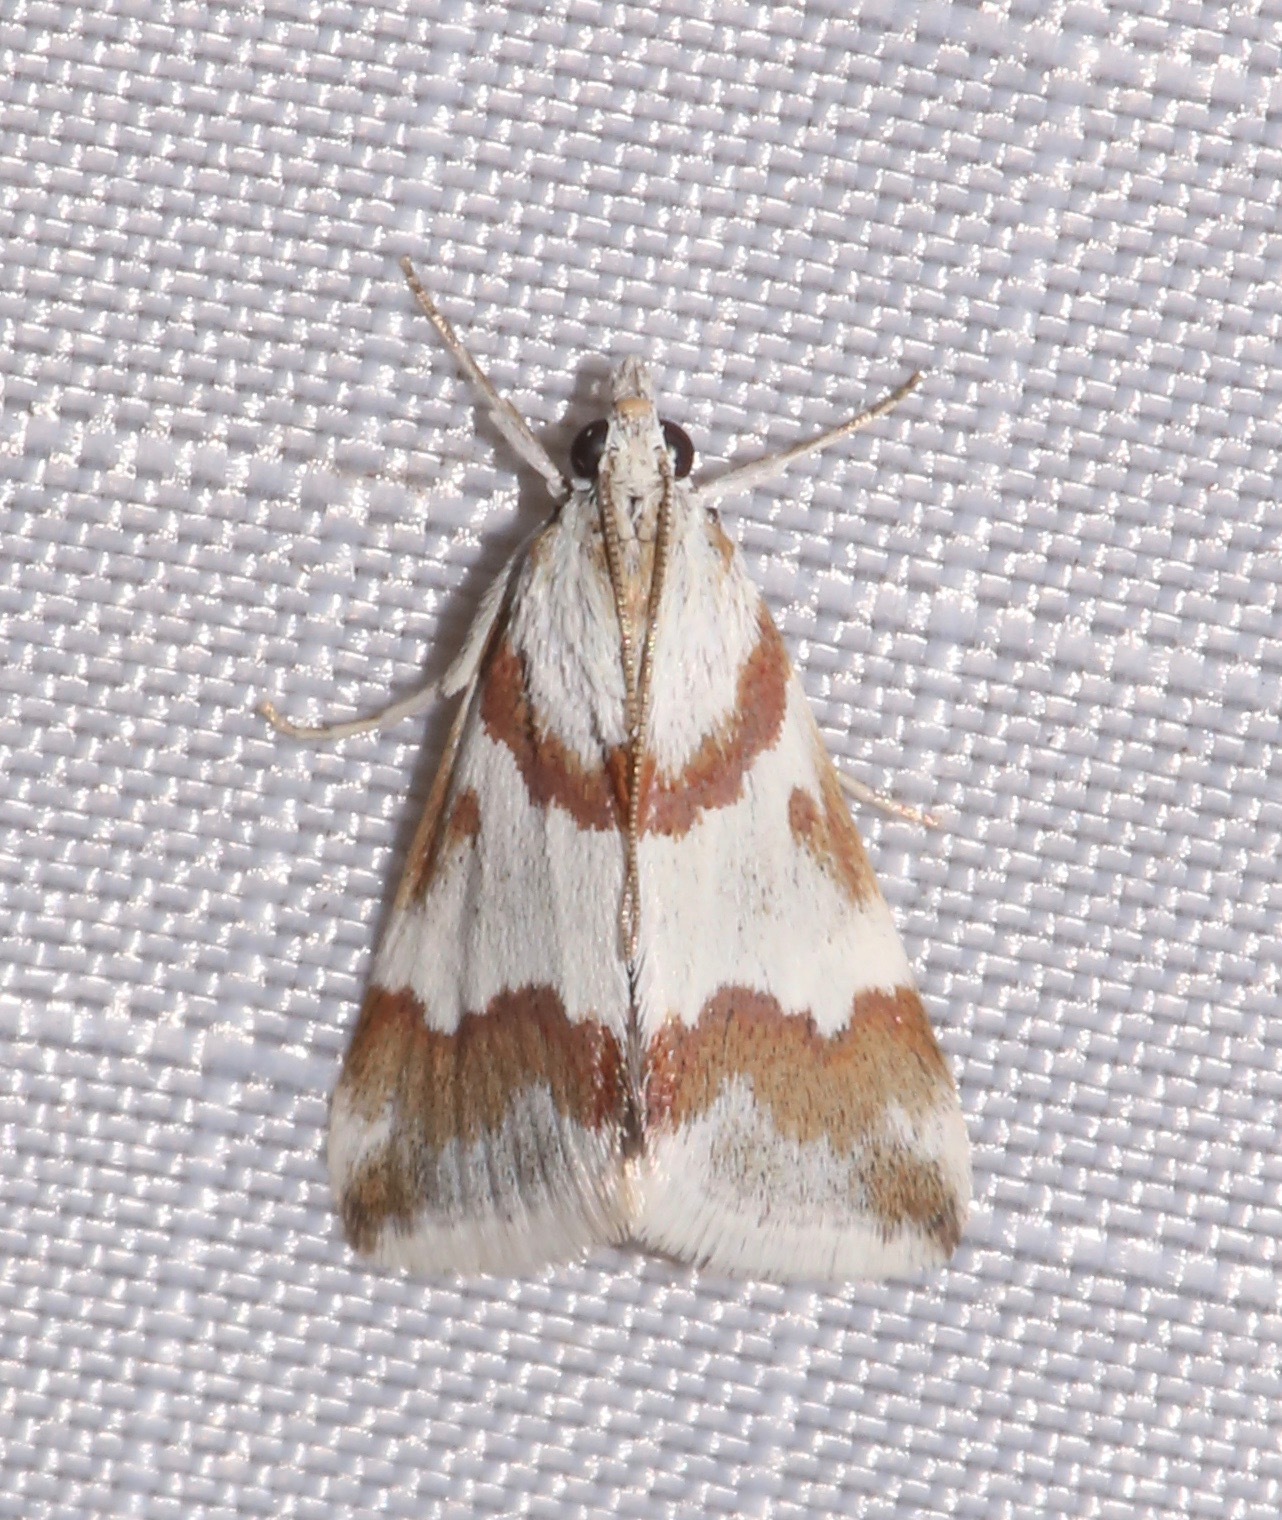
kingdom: Animalia
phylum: Arthropoda
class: Insecta
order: Lepidoptera
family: Crambidae
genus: Noctuelia
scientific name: Noctuelia Mimoschinia rufofascialis
